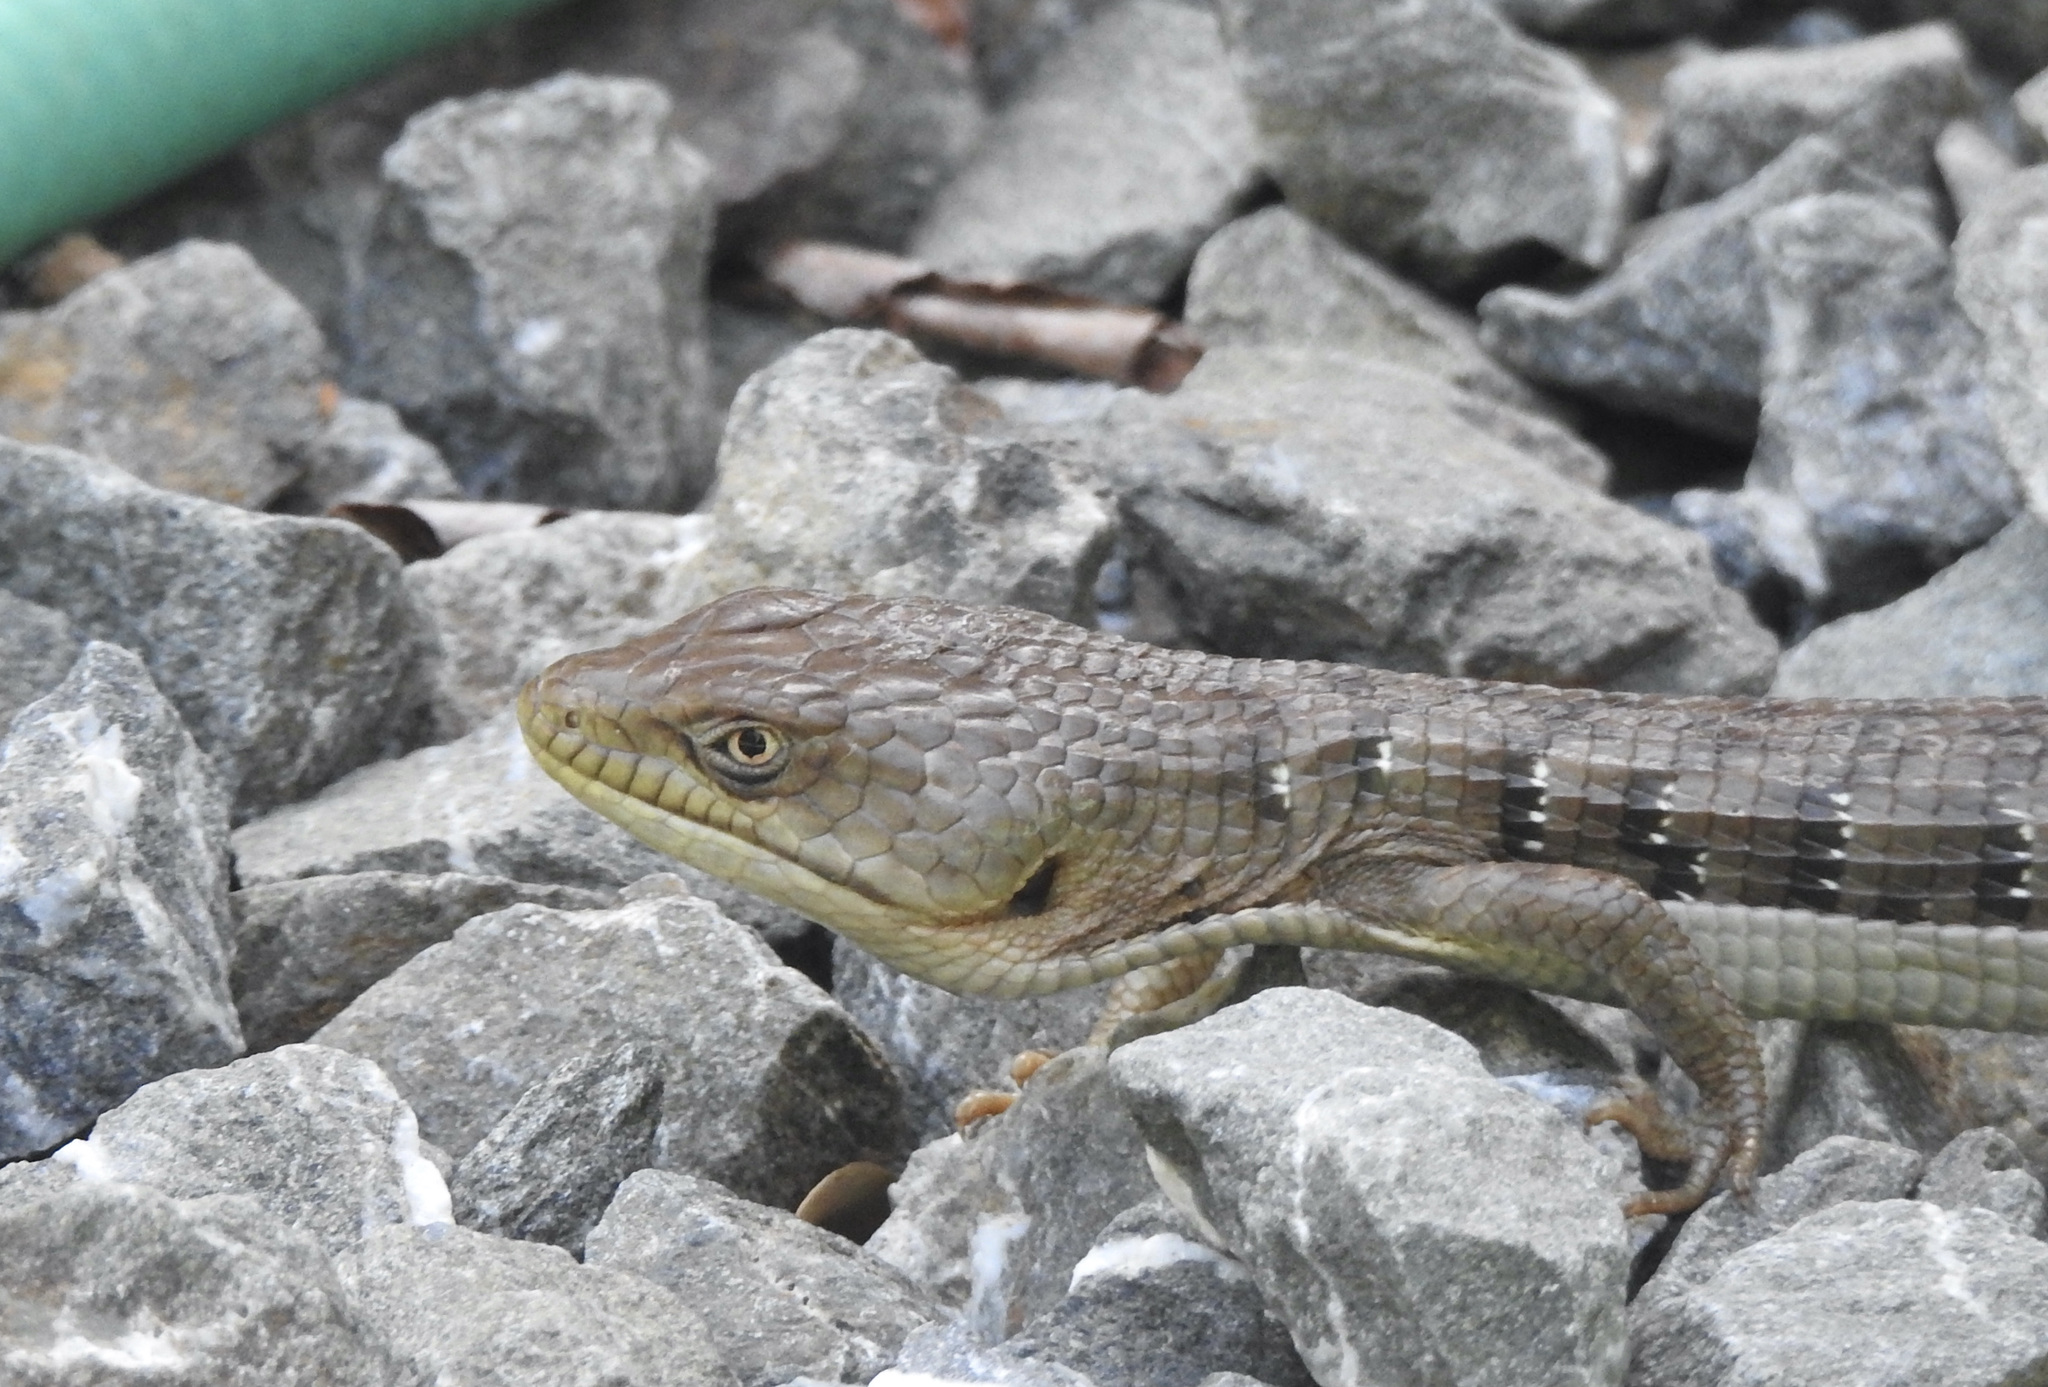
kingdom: Animalia
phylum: Chordata
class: Squamata
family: Anguidae
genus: Elgaria
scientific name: Elgaria multicarinata
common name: Southern alligator lizard
